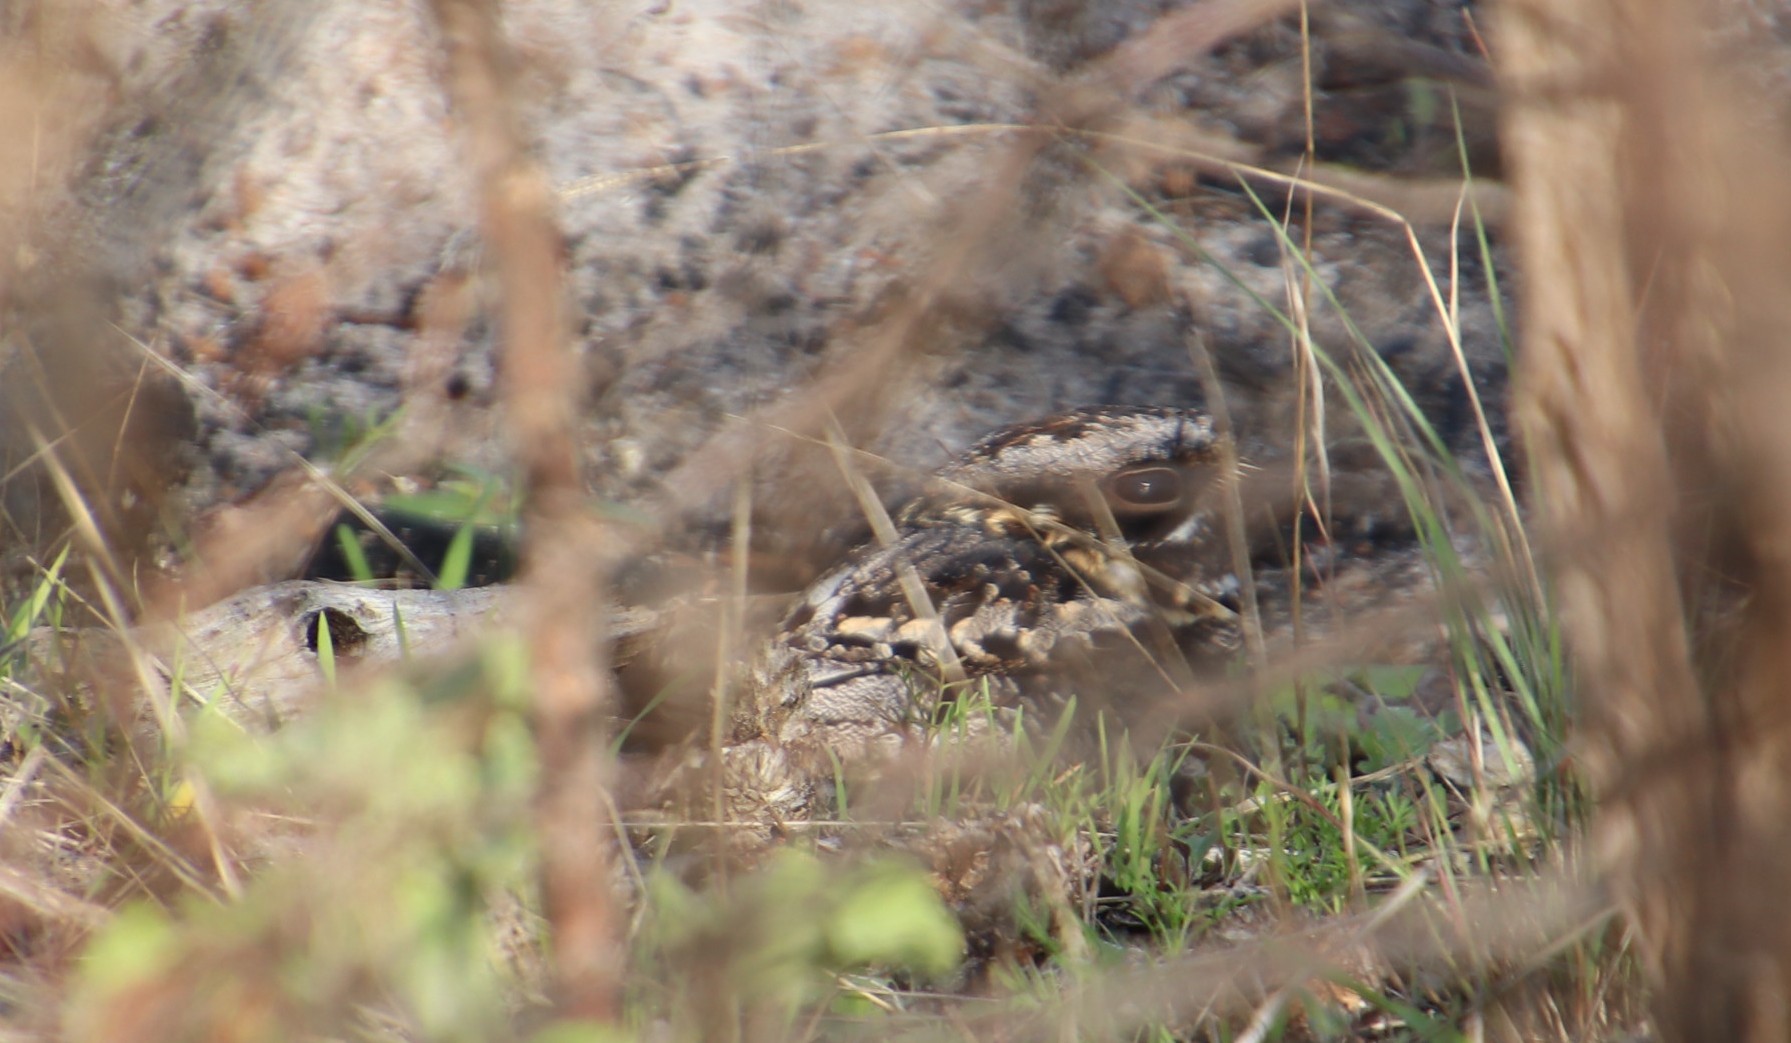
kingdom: Animalia
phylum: Chordata
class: Aves
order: Caprimulgiformes
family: Caprimulgidae
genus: Caprimulgus
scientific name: Caprimulgus pectoralis
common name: Fiery-necked nightjar
